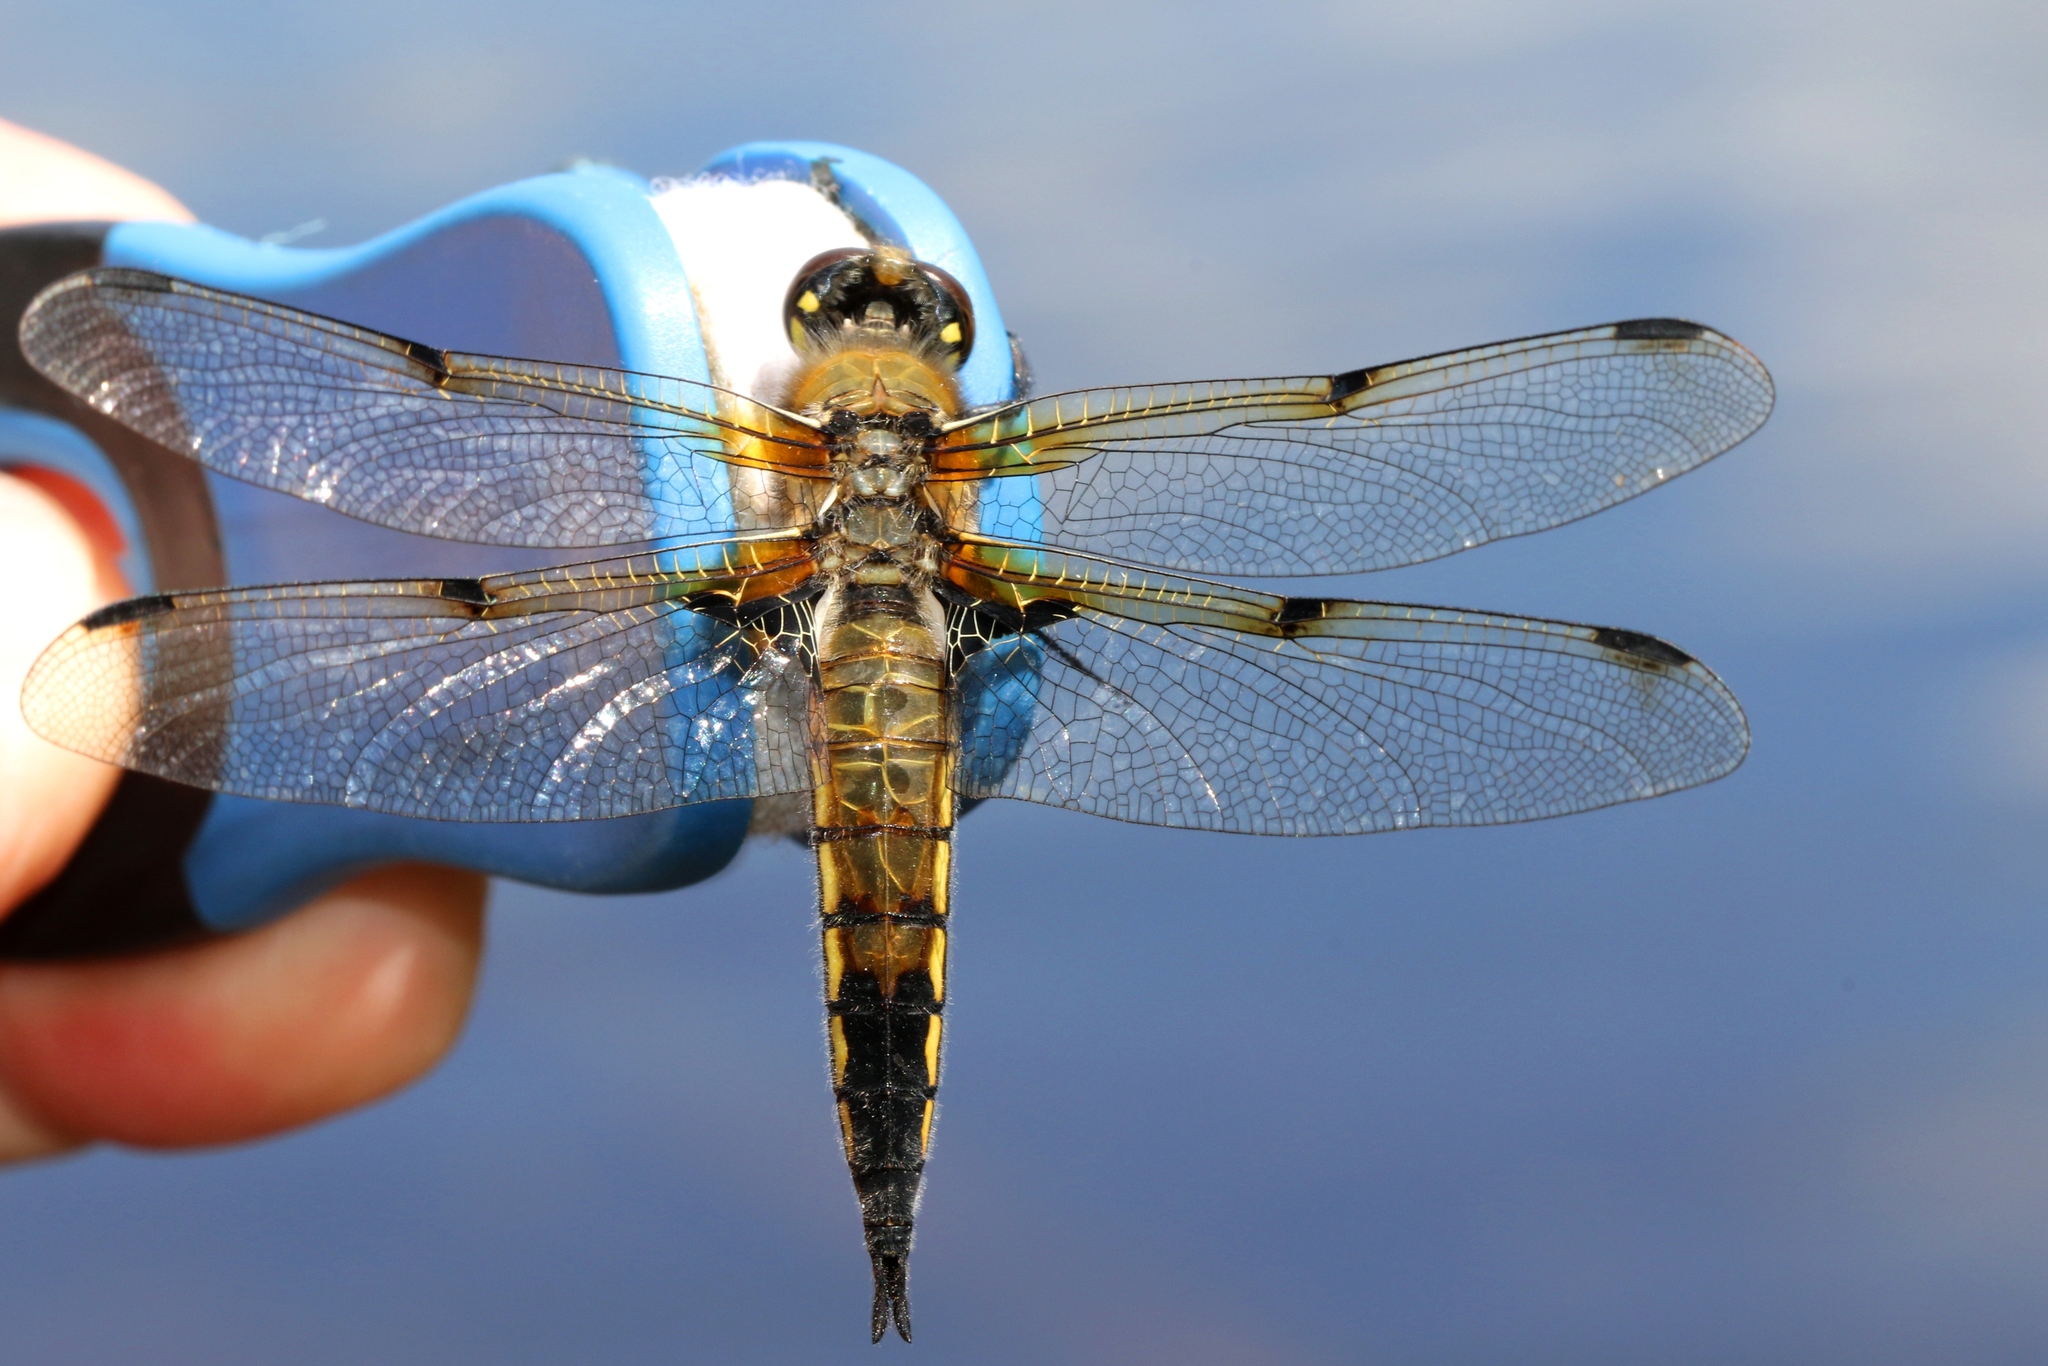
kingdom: Animalia
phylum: Arthropoda
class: Insecta
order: Odonata
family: Libellulidae
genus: Libellula
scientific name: Libellula quadrimaculata
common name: Four-spotted chaser
